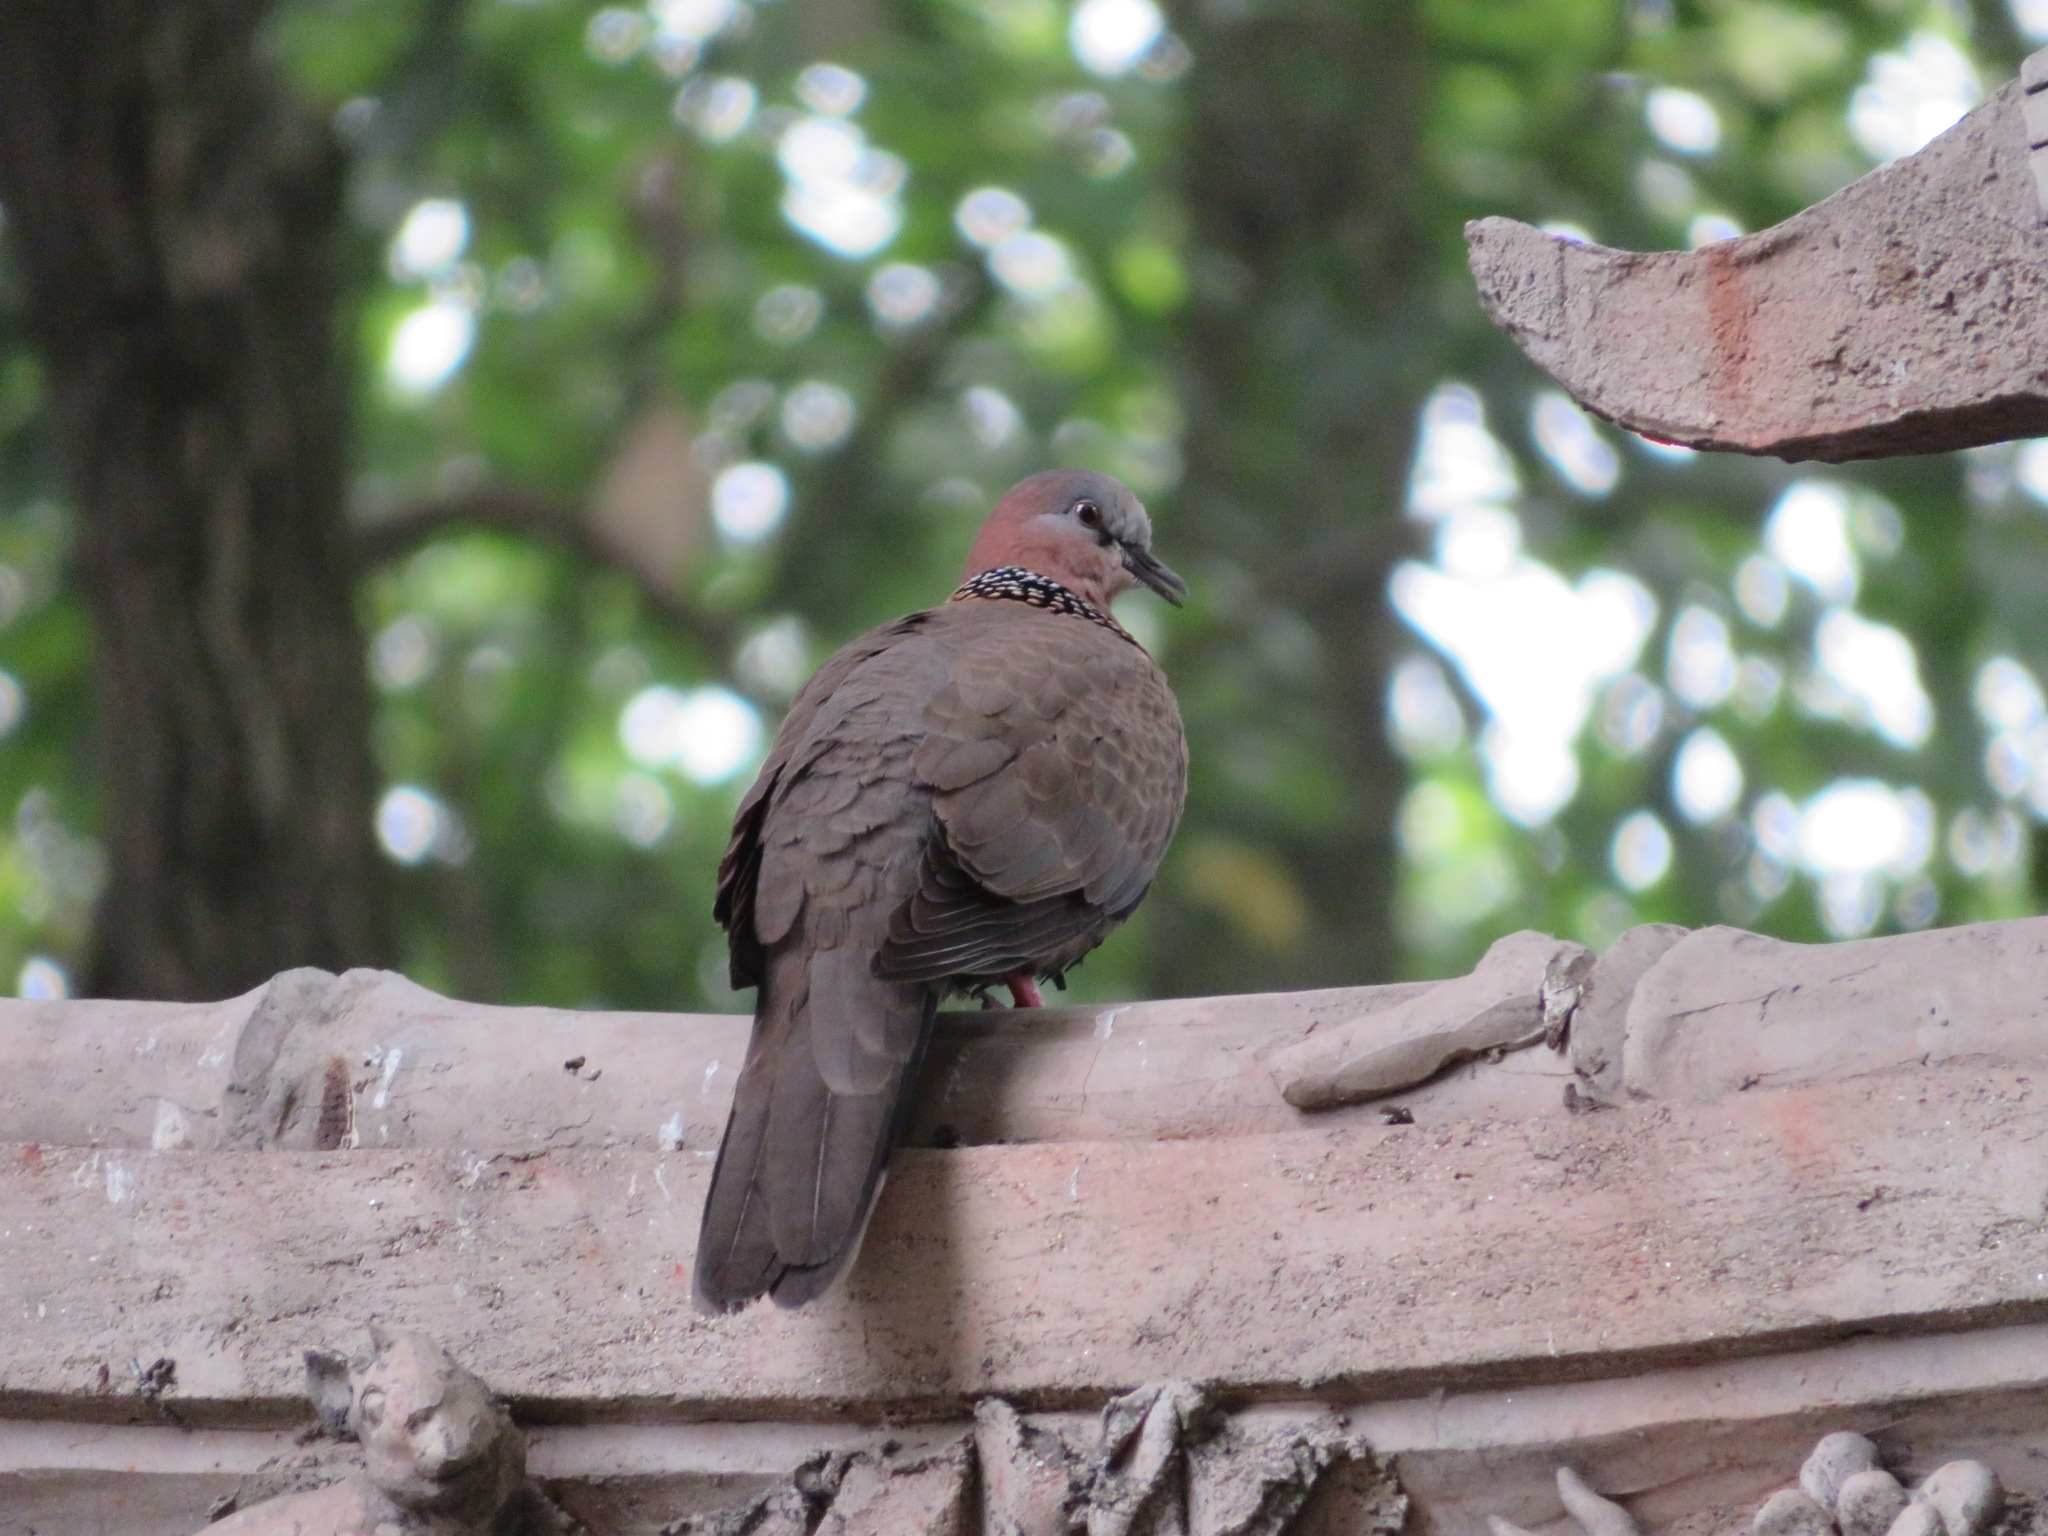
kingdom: Animalia
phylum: Chordata
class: Aves
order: Columbiformes
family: Columbidae
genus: Spilopelia
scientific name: Spilopelia chinensis
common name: Spotted dove
